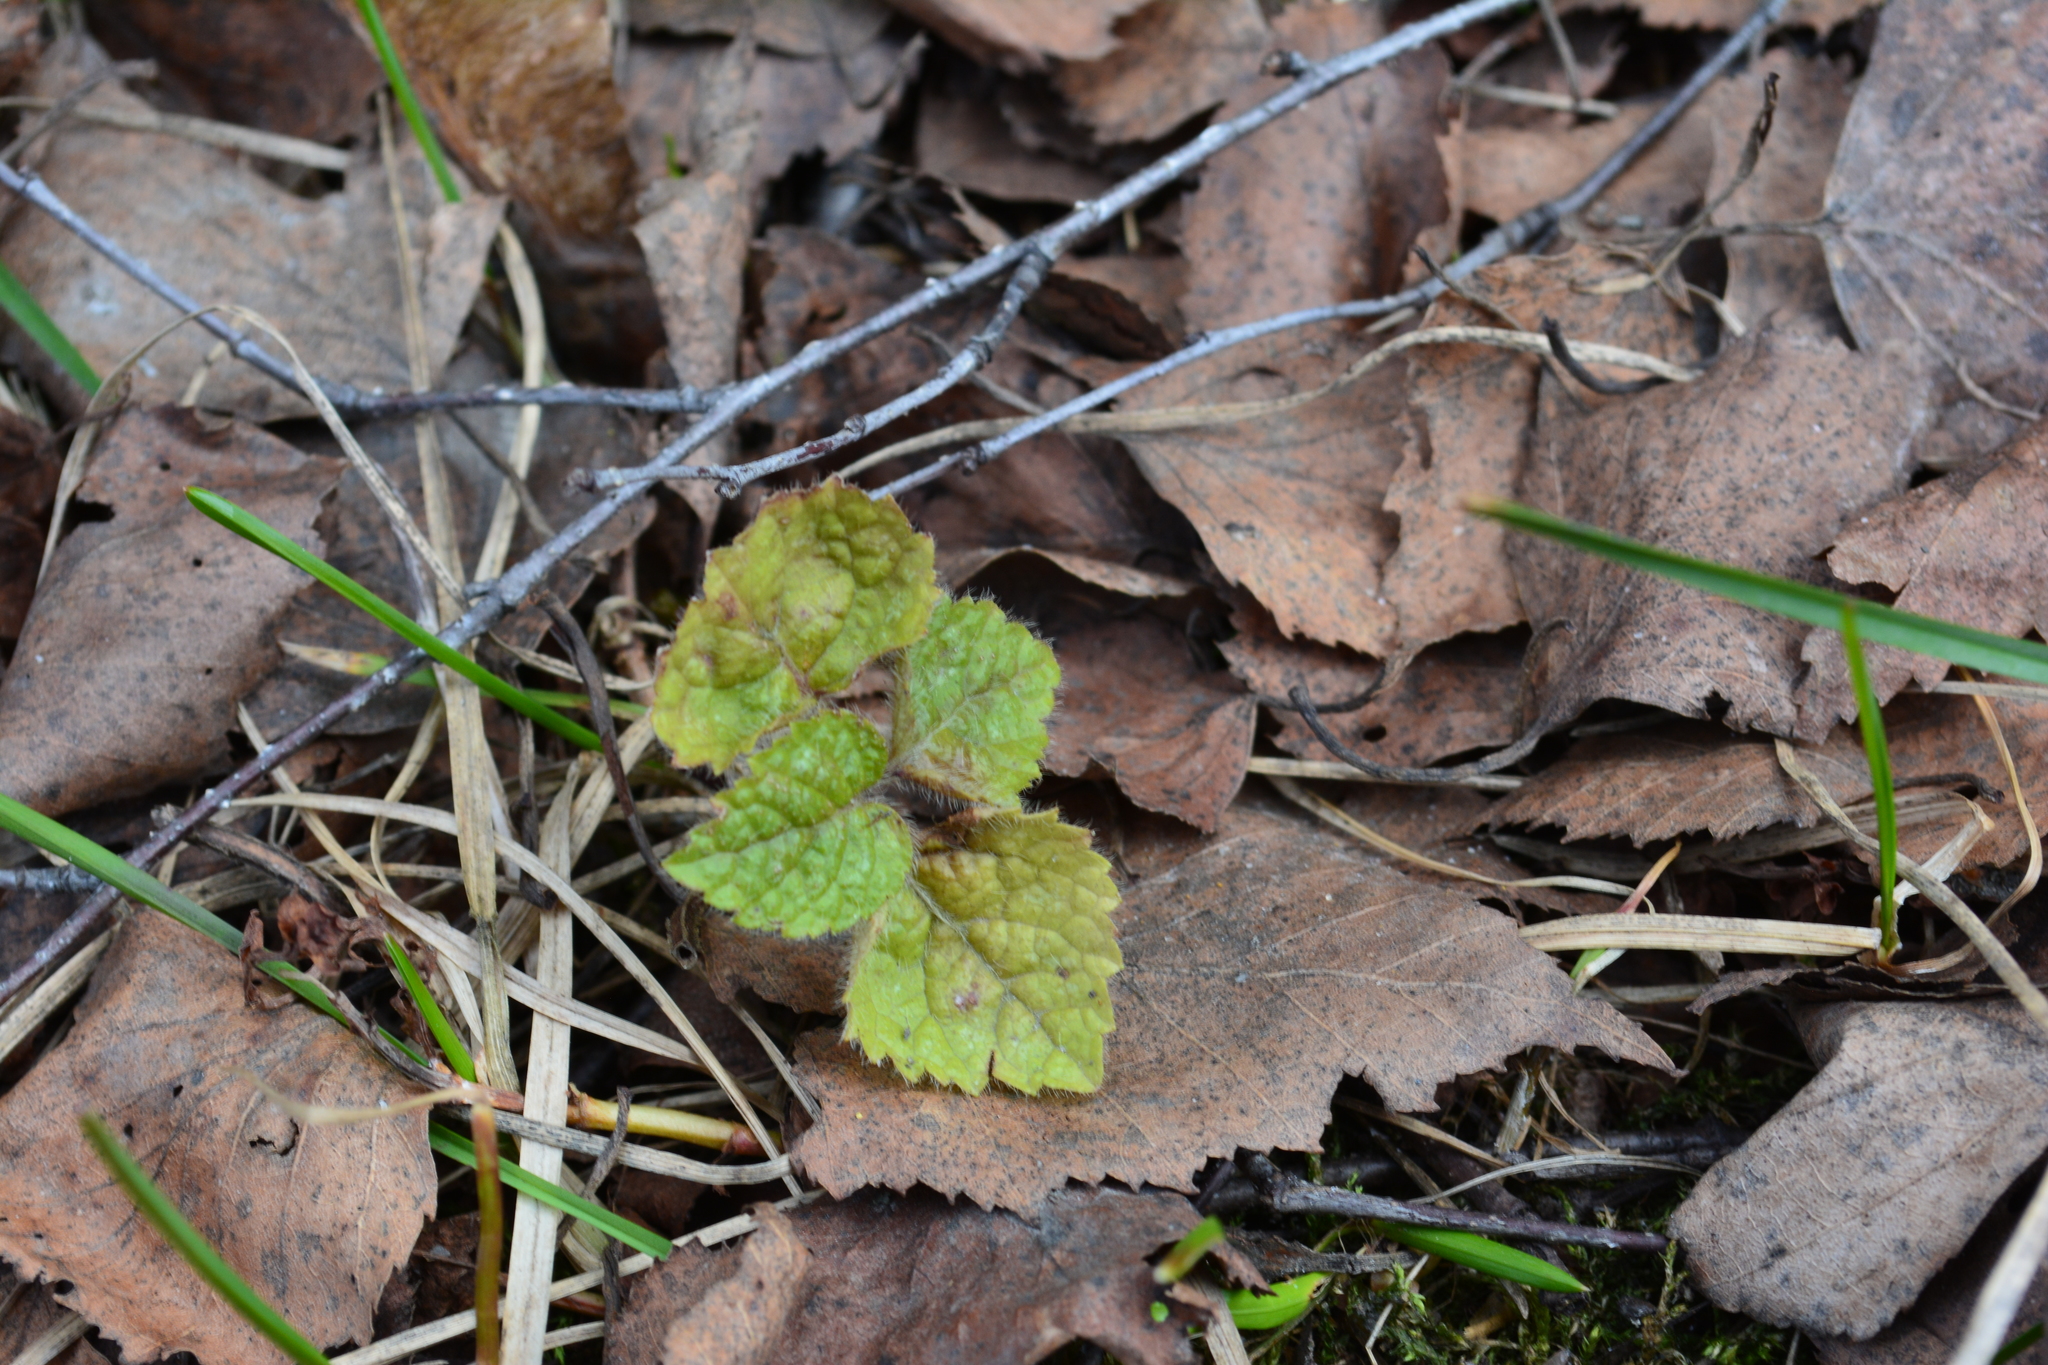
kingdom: Plantae
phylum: Tracheophyta
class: Magnoliopsida
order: Lamiales
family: Lamiaceae
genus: Lamium
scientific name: Lamium galeobdolon
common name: Yellow archangel
